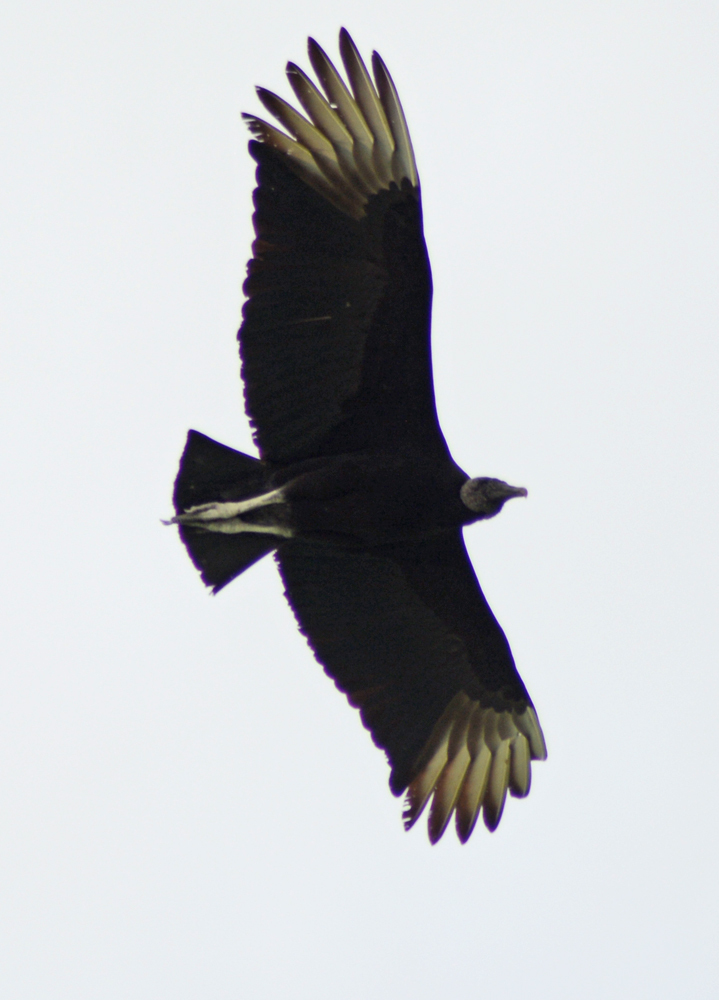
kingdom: Animalia
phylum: Chordata
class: Aves
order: Accipitriformes
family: Cathartidae
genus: Coragyps
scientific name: Coragyps atratus
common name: Black vulture
